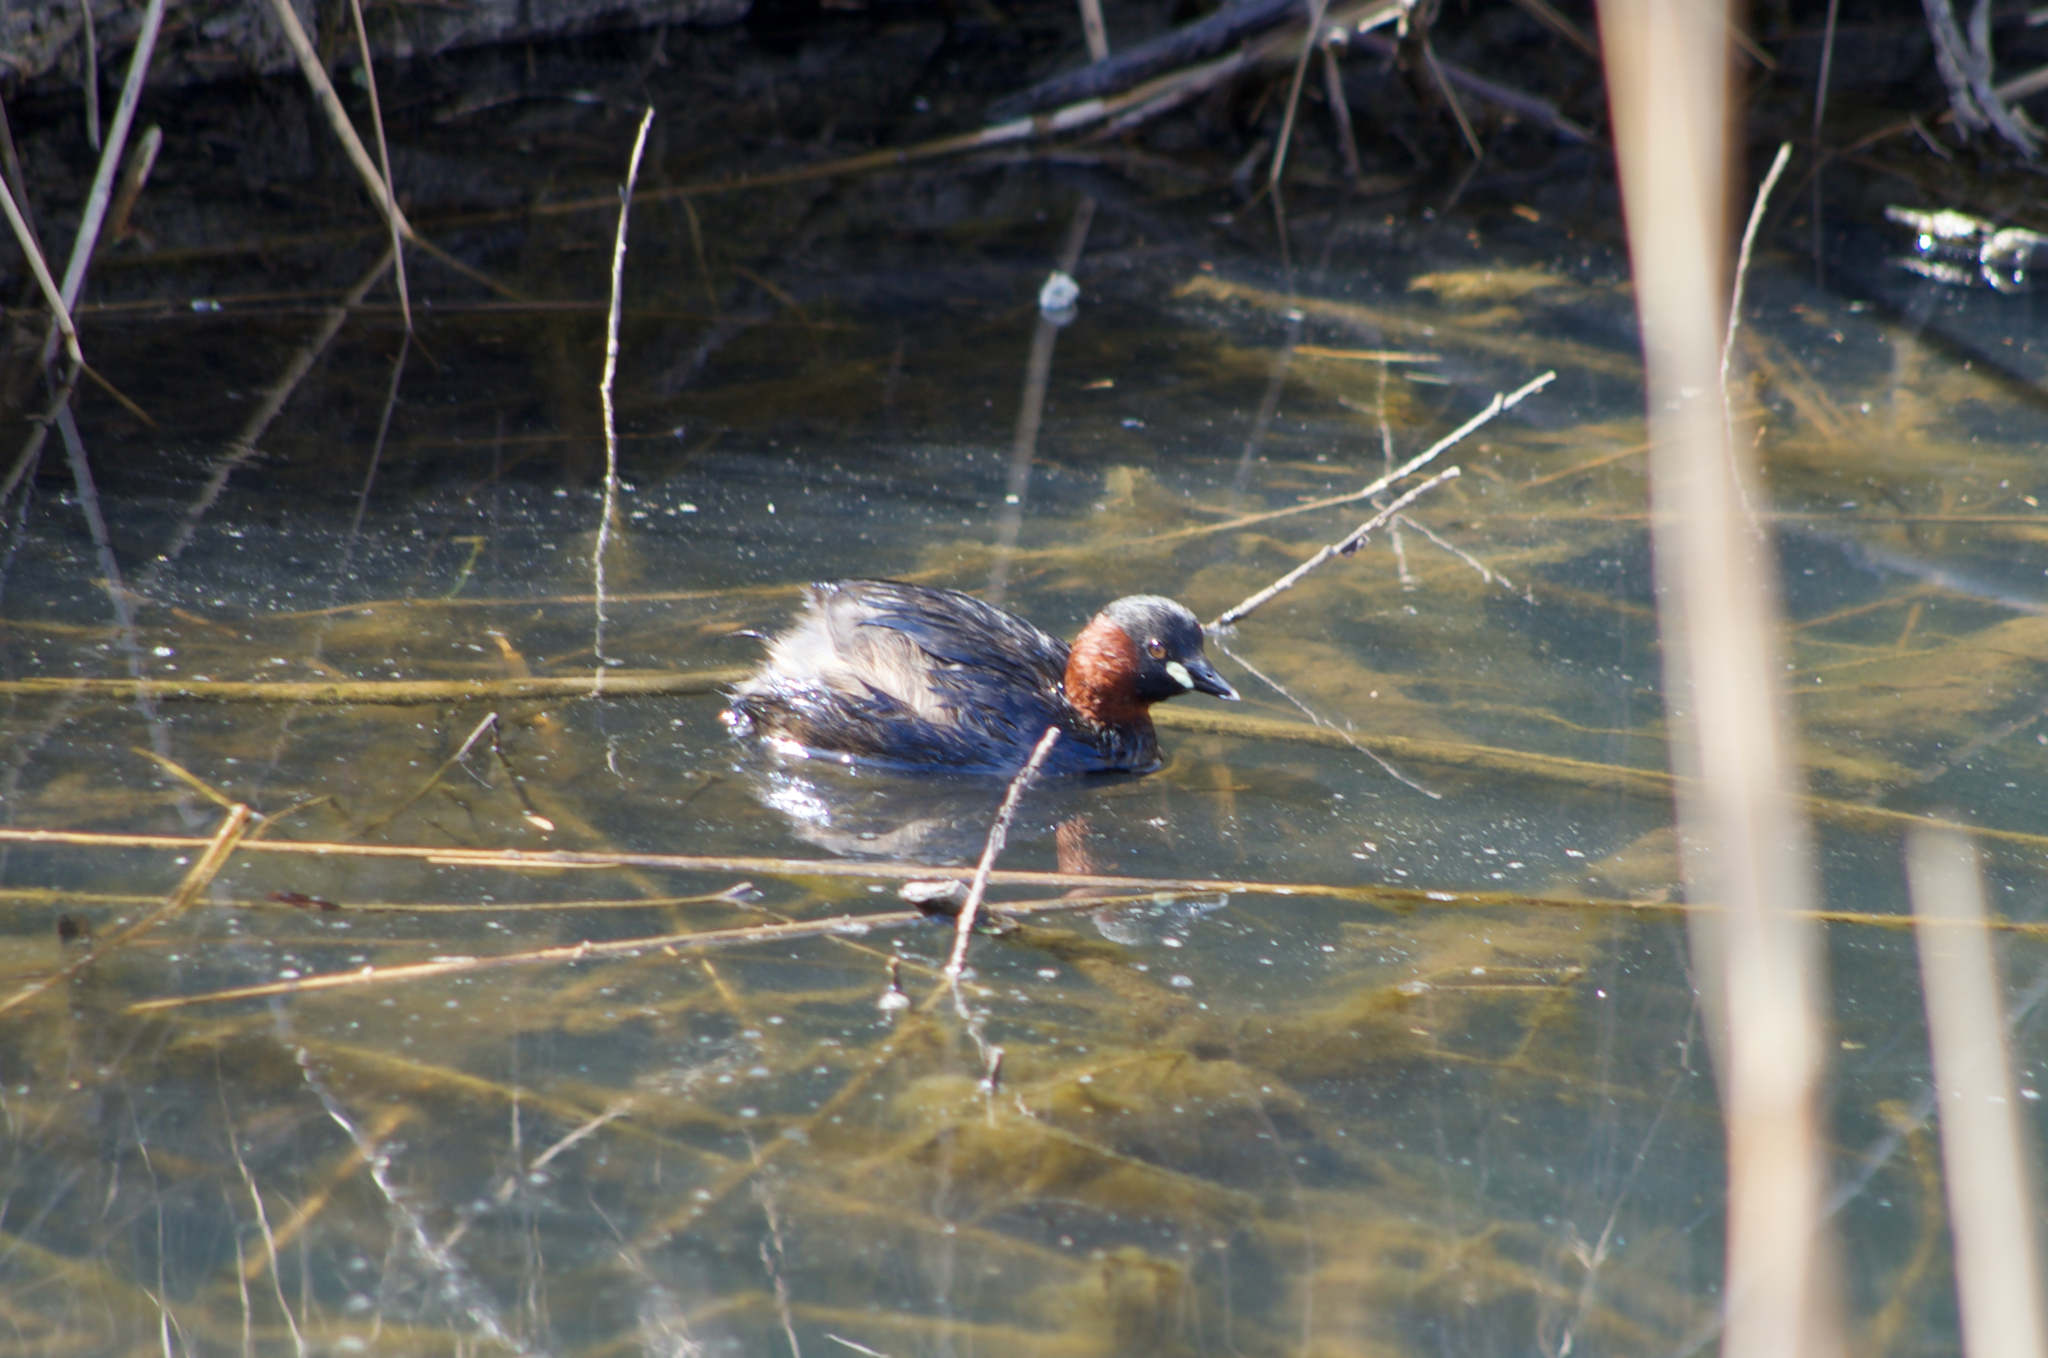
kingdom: Animalia
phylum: Chordata
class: Aves
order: Podicipediformes
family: Podicipedidae
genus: Tachybaptus
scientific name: Tachybaptus ruficollis
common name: Little grebe
